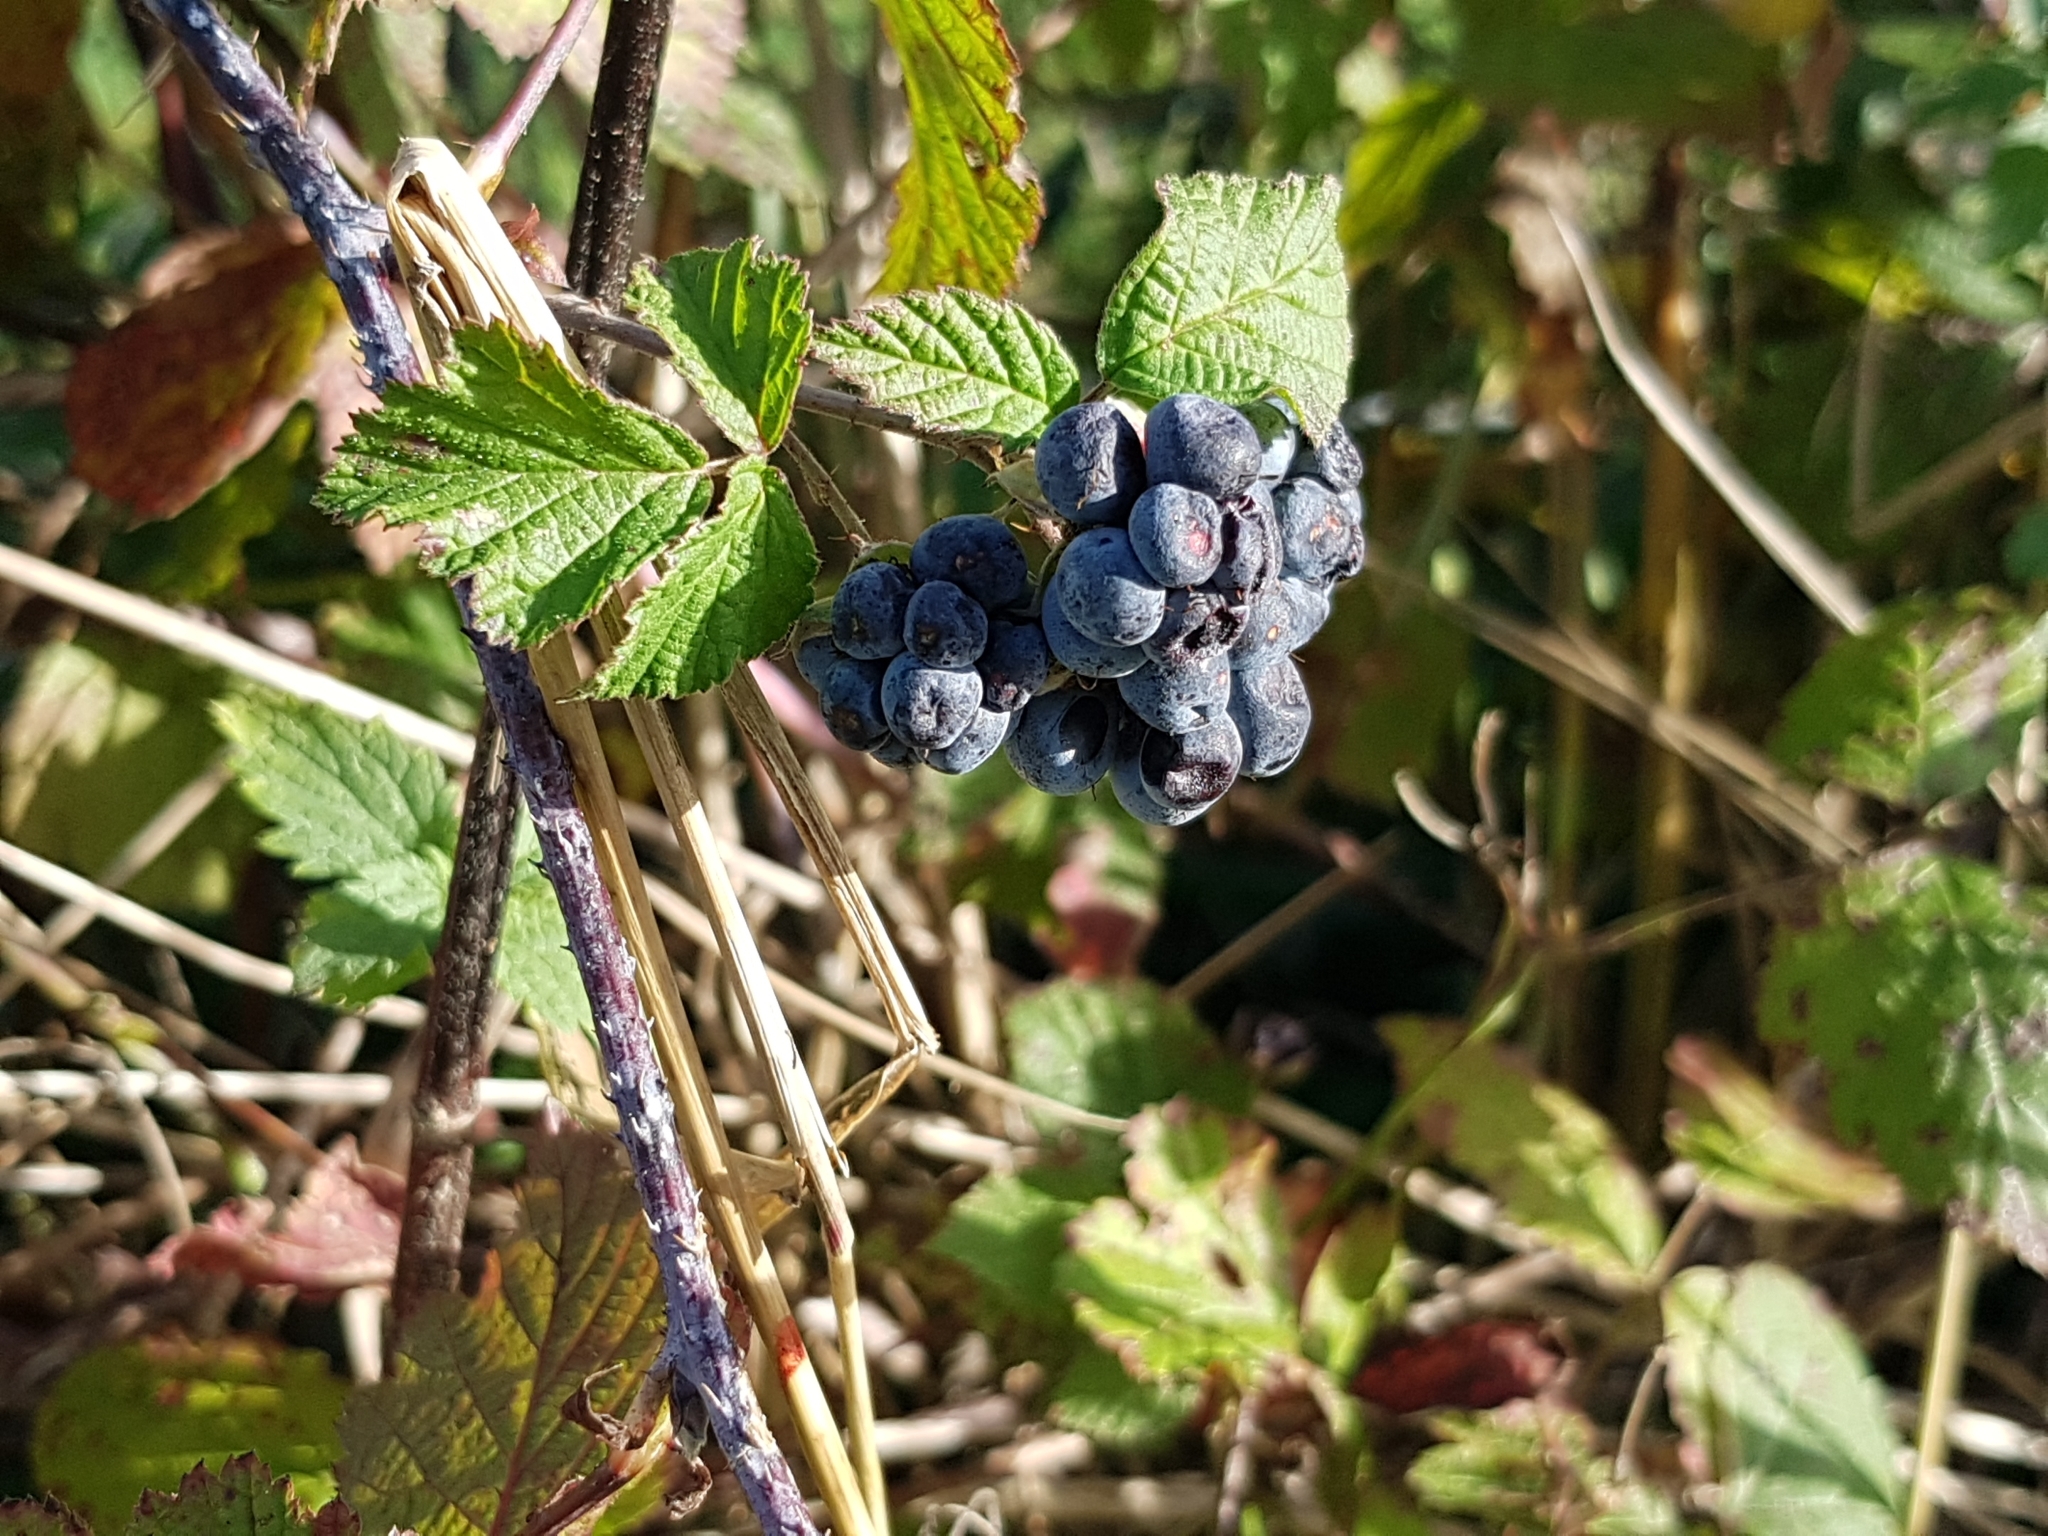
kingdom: Plantae
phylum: Tracheophyta
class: Magnoliopsida
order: Rosales
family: Rosaceae
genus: Rubus
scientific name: Rubus caesius
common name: Dewberry
